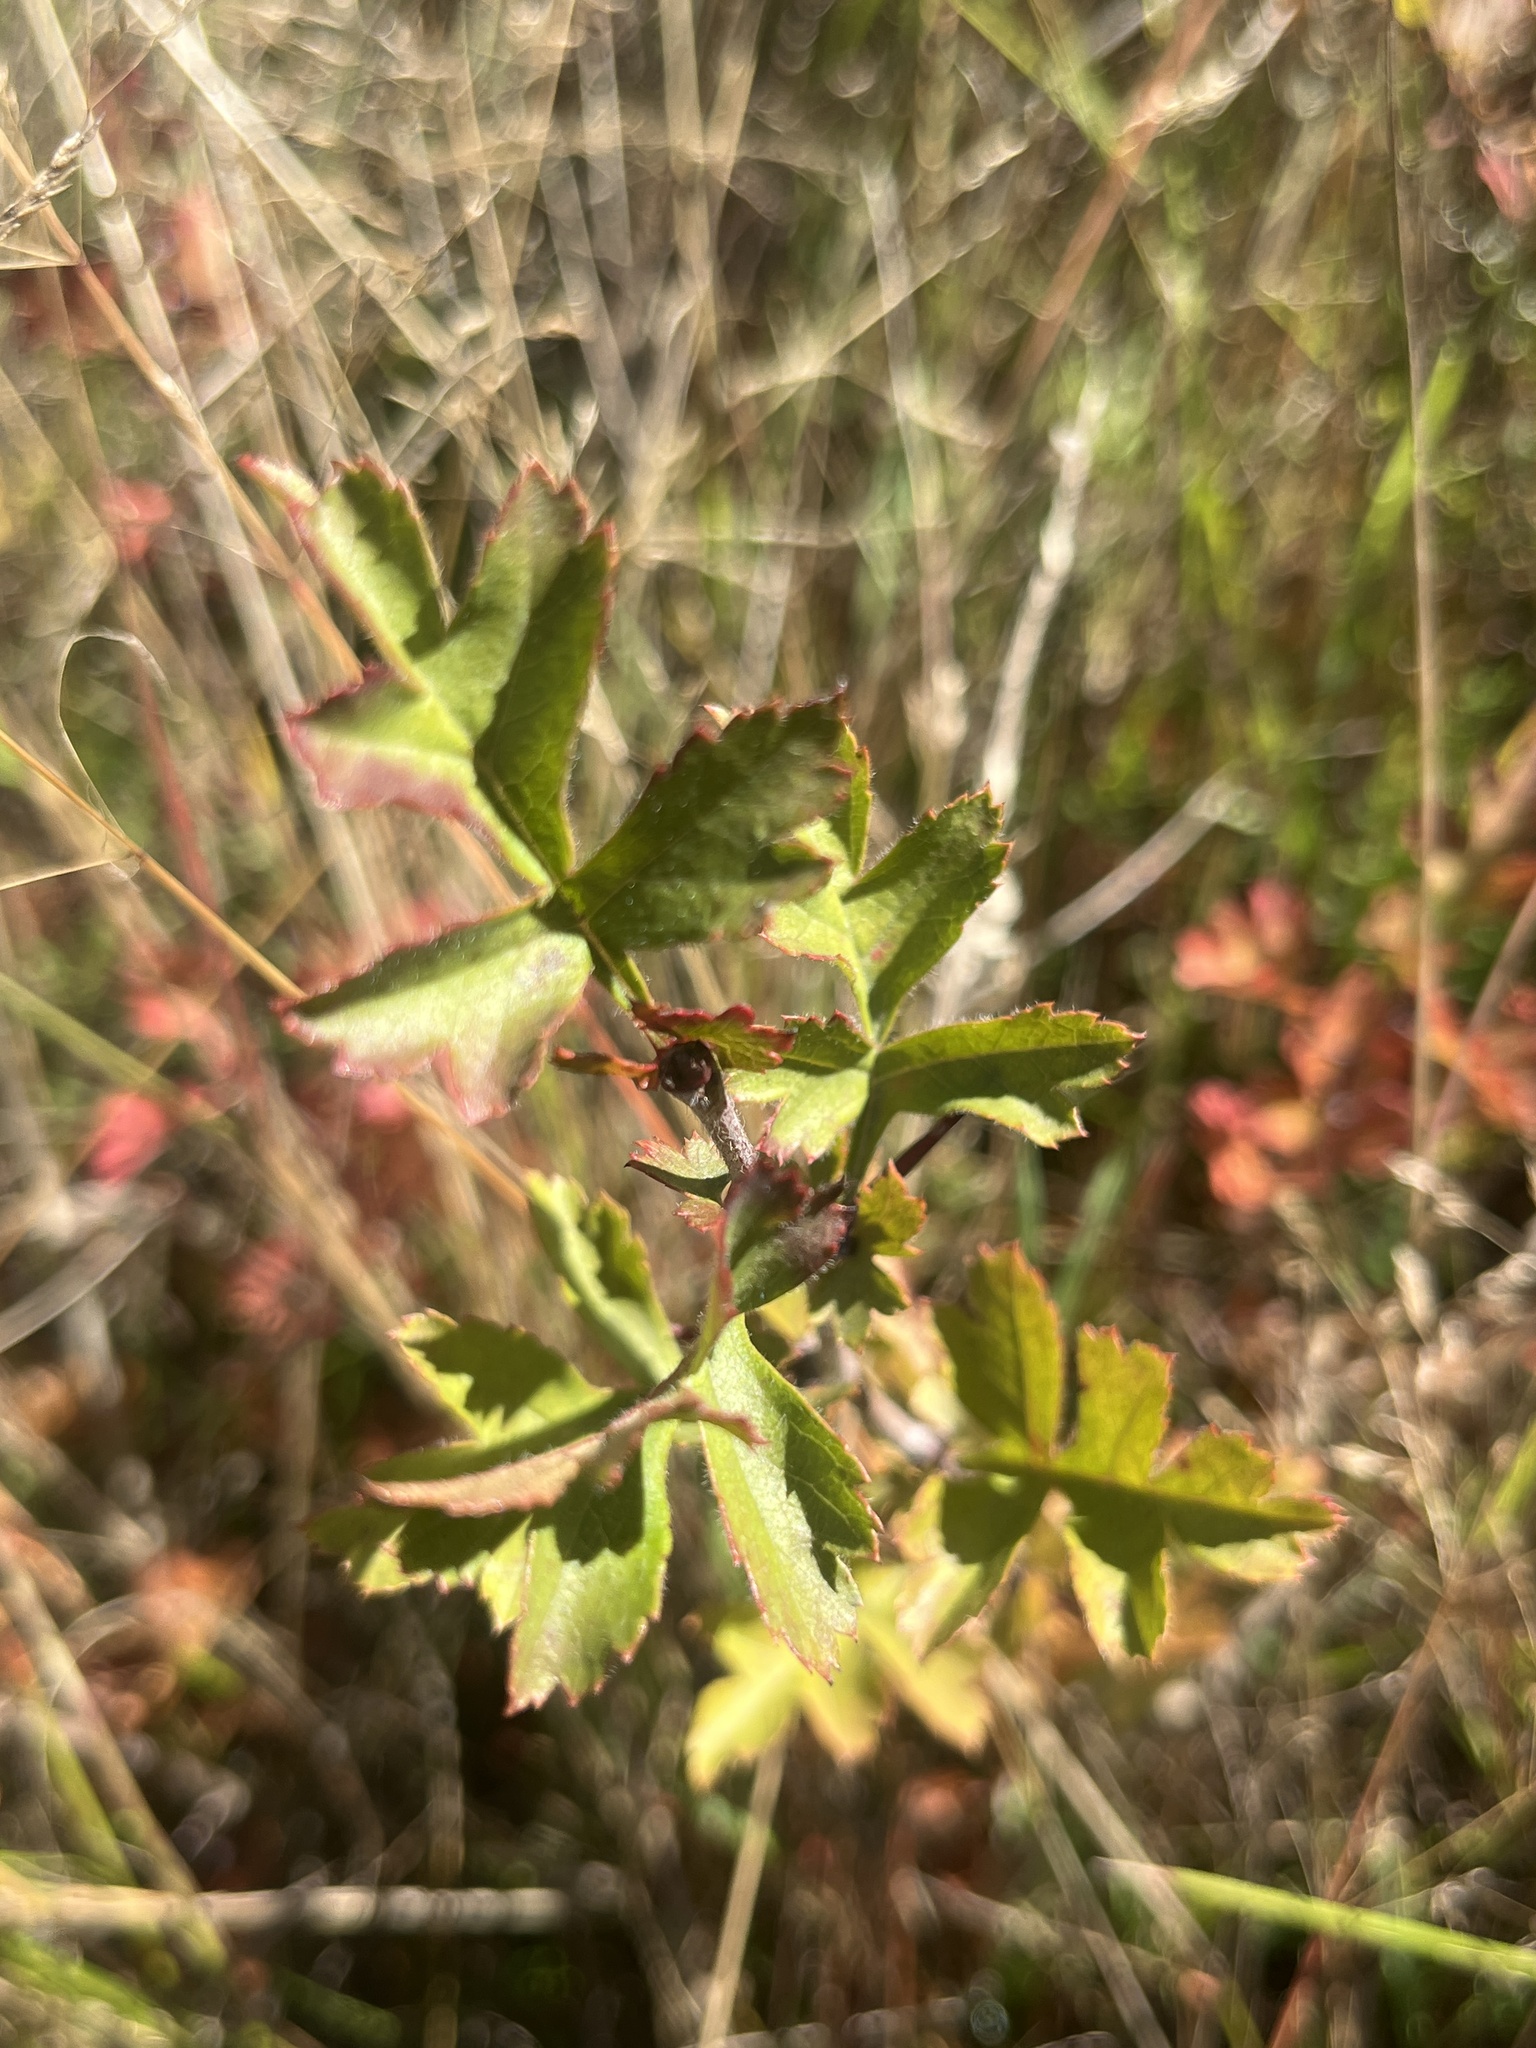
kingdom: Plantae
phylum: Tracheophyta
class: Magnoliopsida
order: Rosales
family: Rosaceae
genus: Crataegus
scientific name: Crataegus monogyna
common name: Hawthorn
